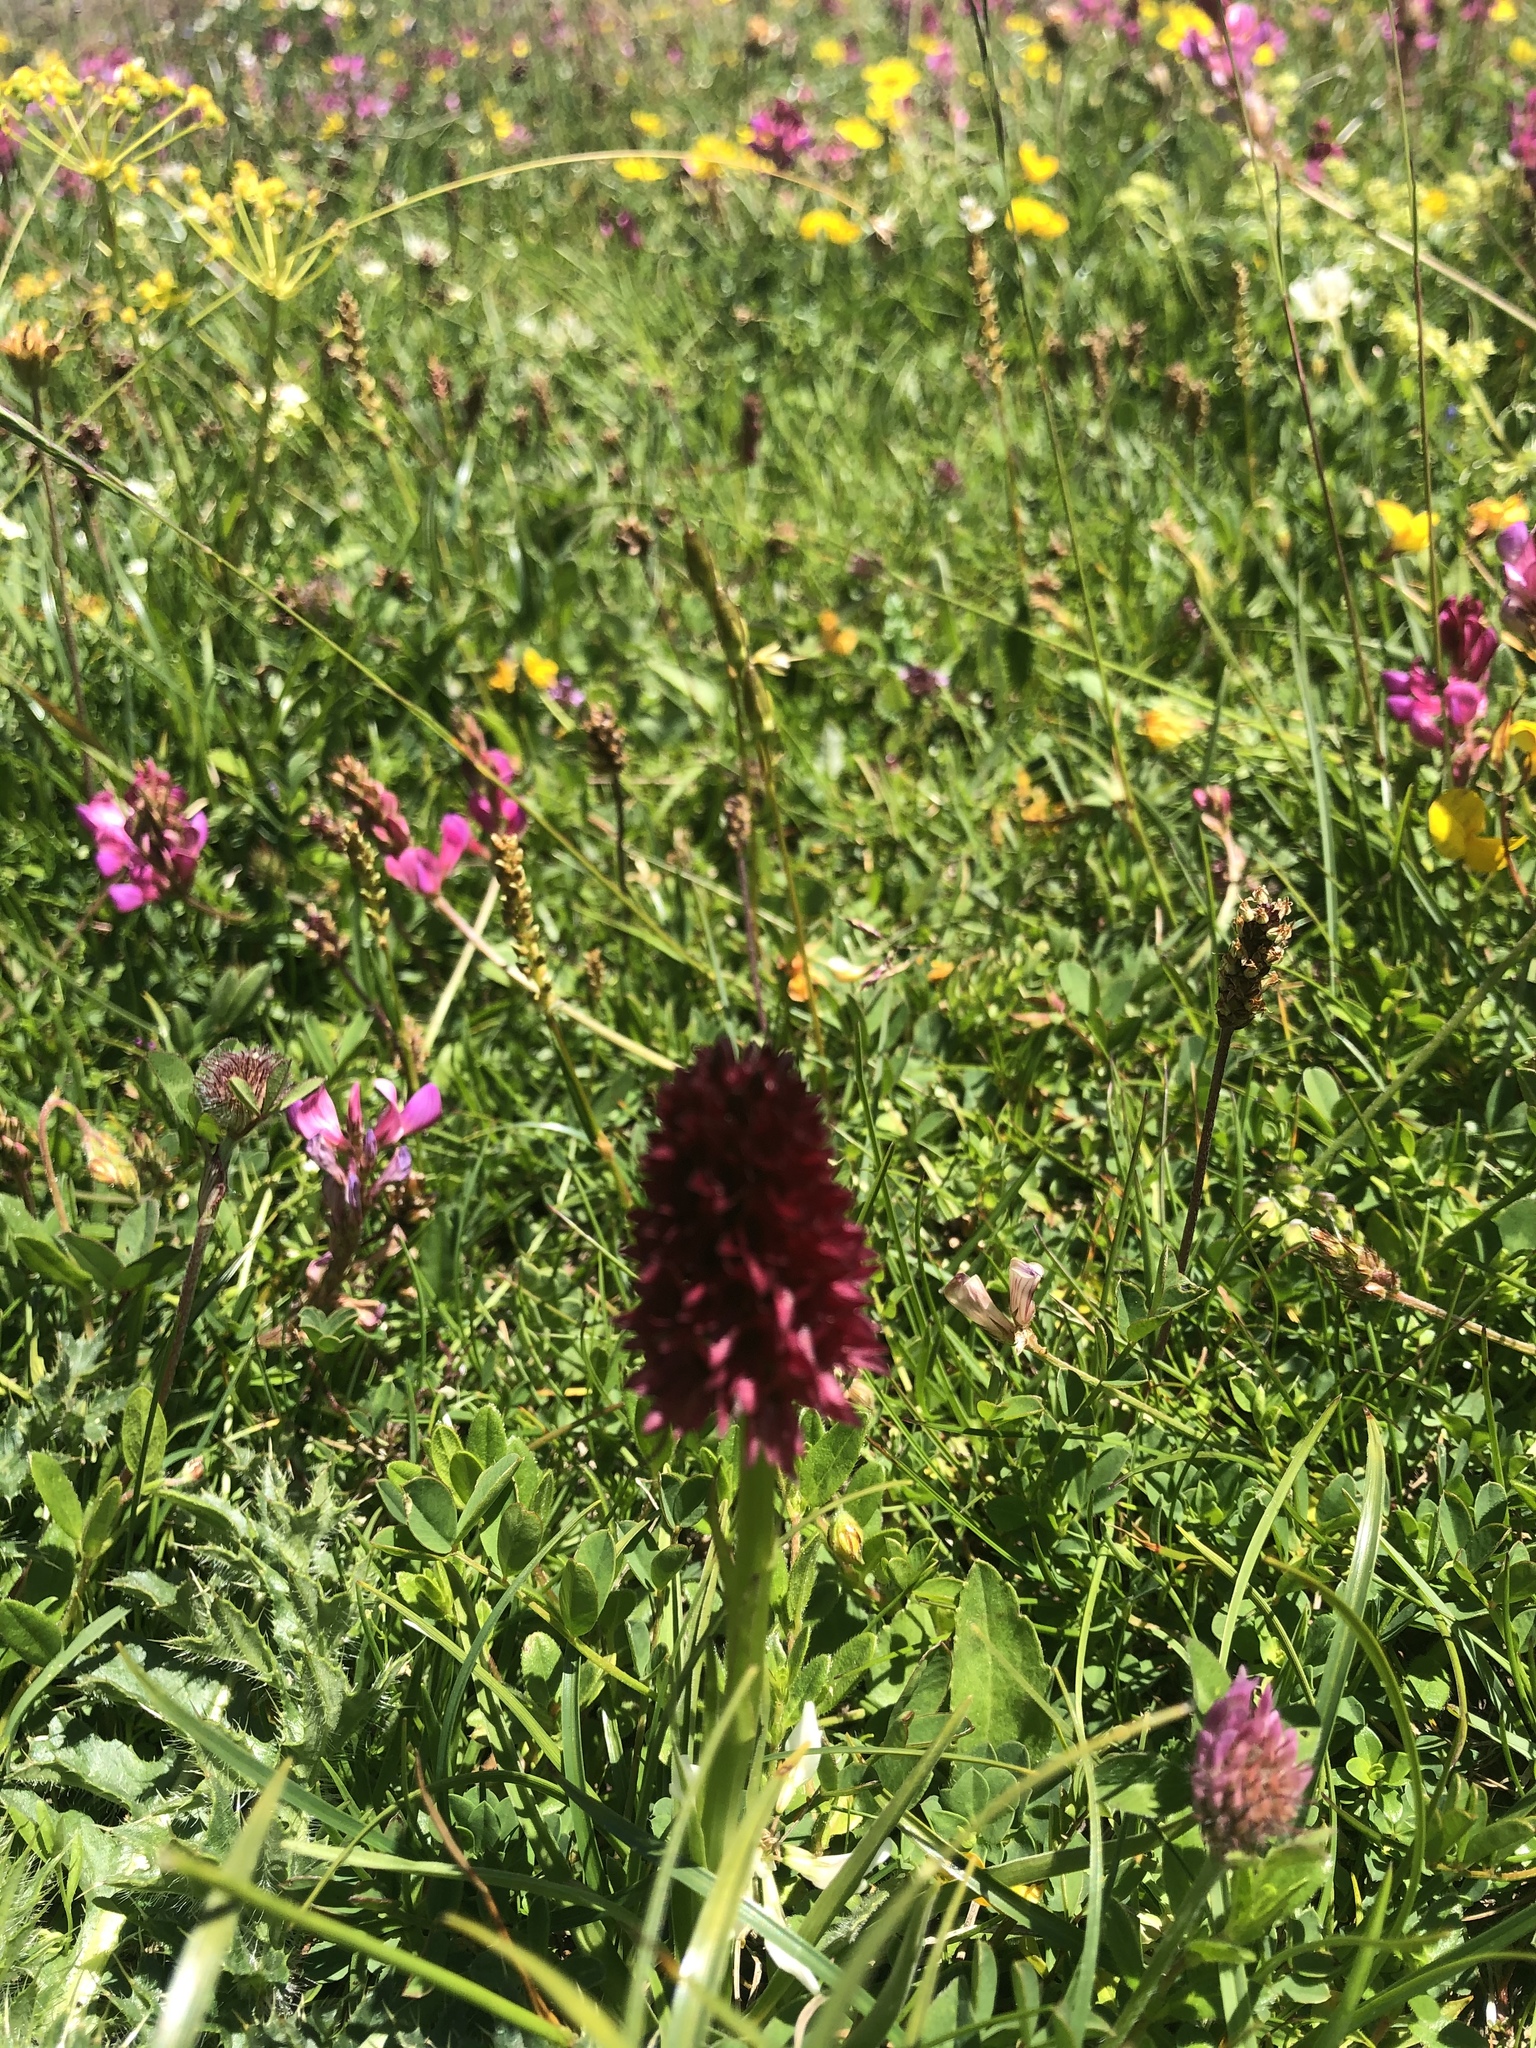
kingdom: Plantae
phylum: Tracheophyta
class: Liliopsida
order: Asparagales
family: Orchidaceae
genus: Gymnadenia
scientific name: Gymnadenia rhellicani
